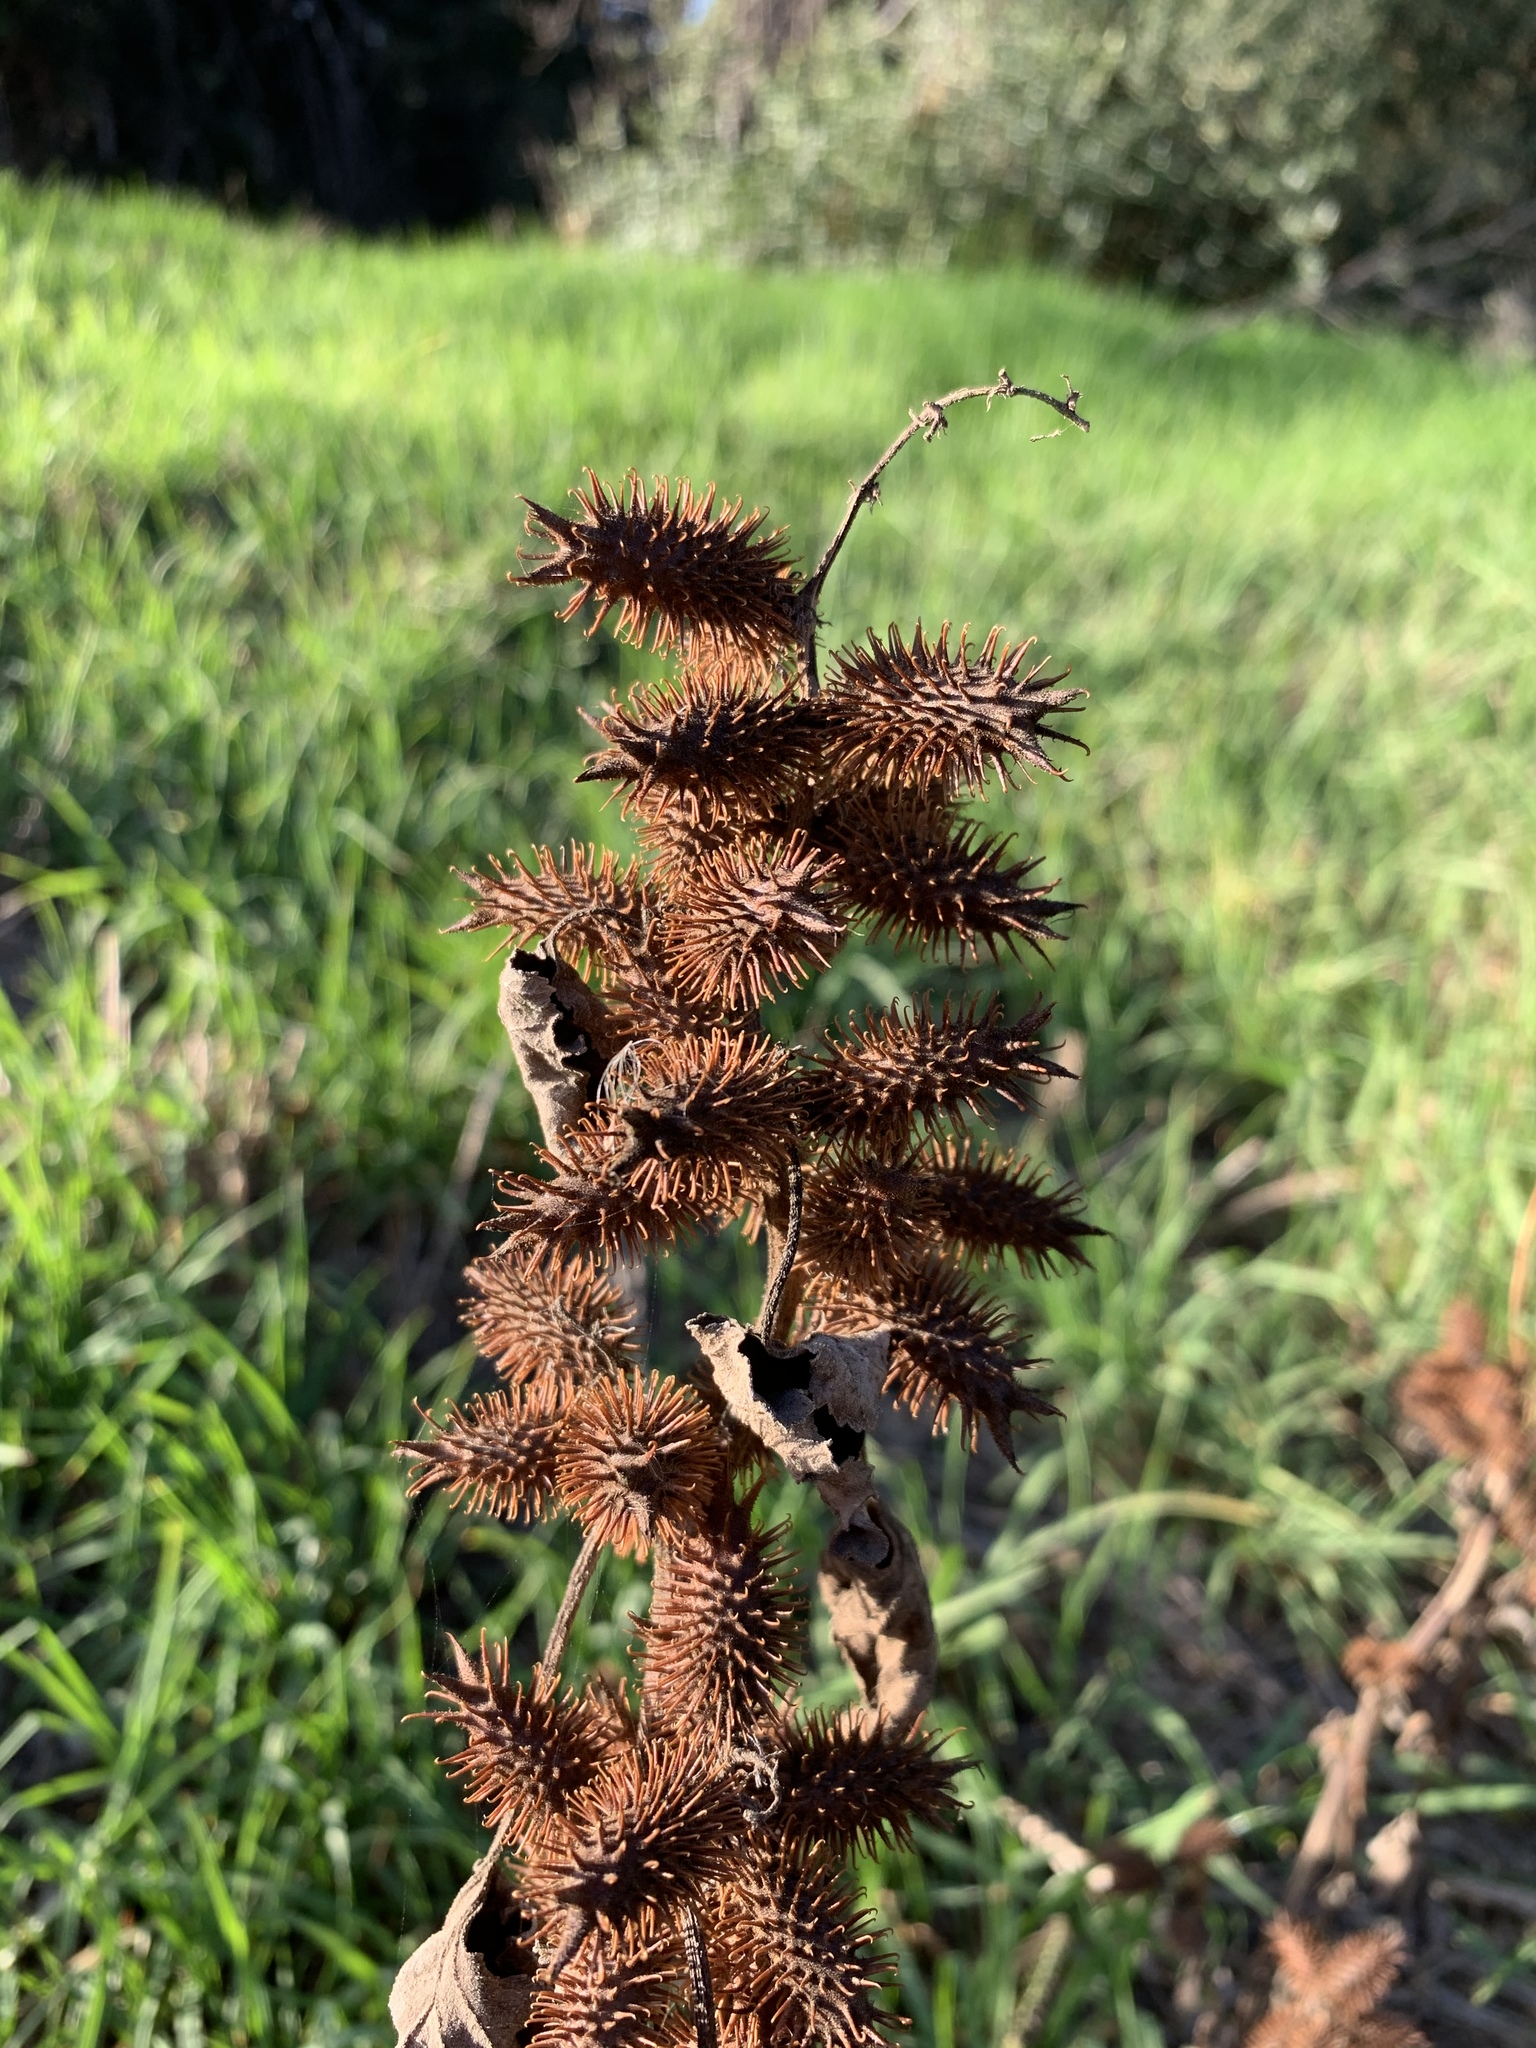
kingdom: Plantae
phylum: Tracheophyta
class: Magnoliopsida
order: Asterales
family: Asteraceae
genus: Xanthium
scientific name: Xanthium strumarium
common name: Rough cocklebur
